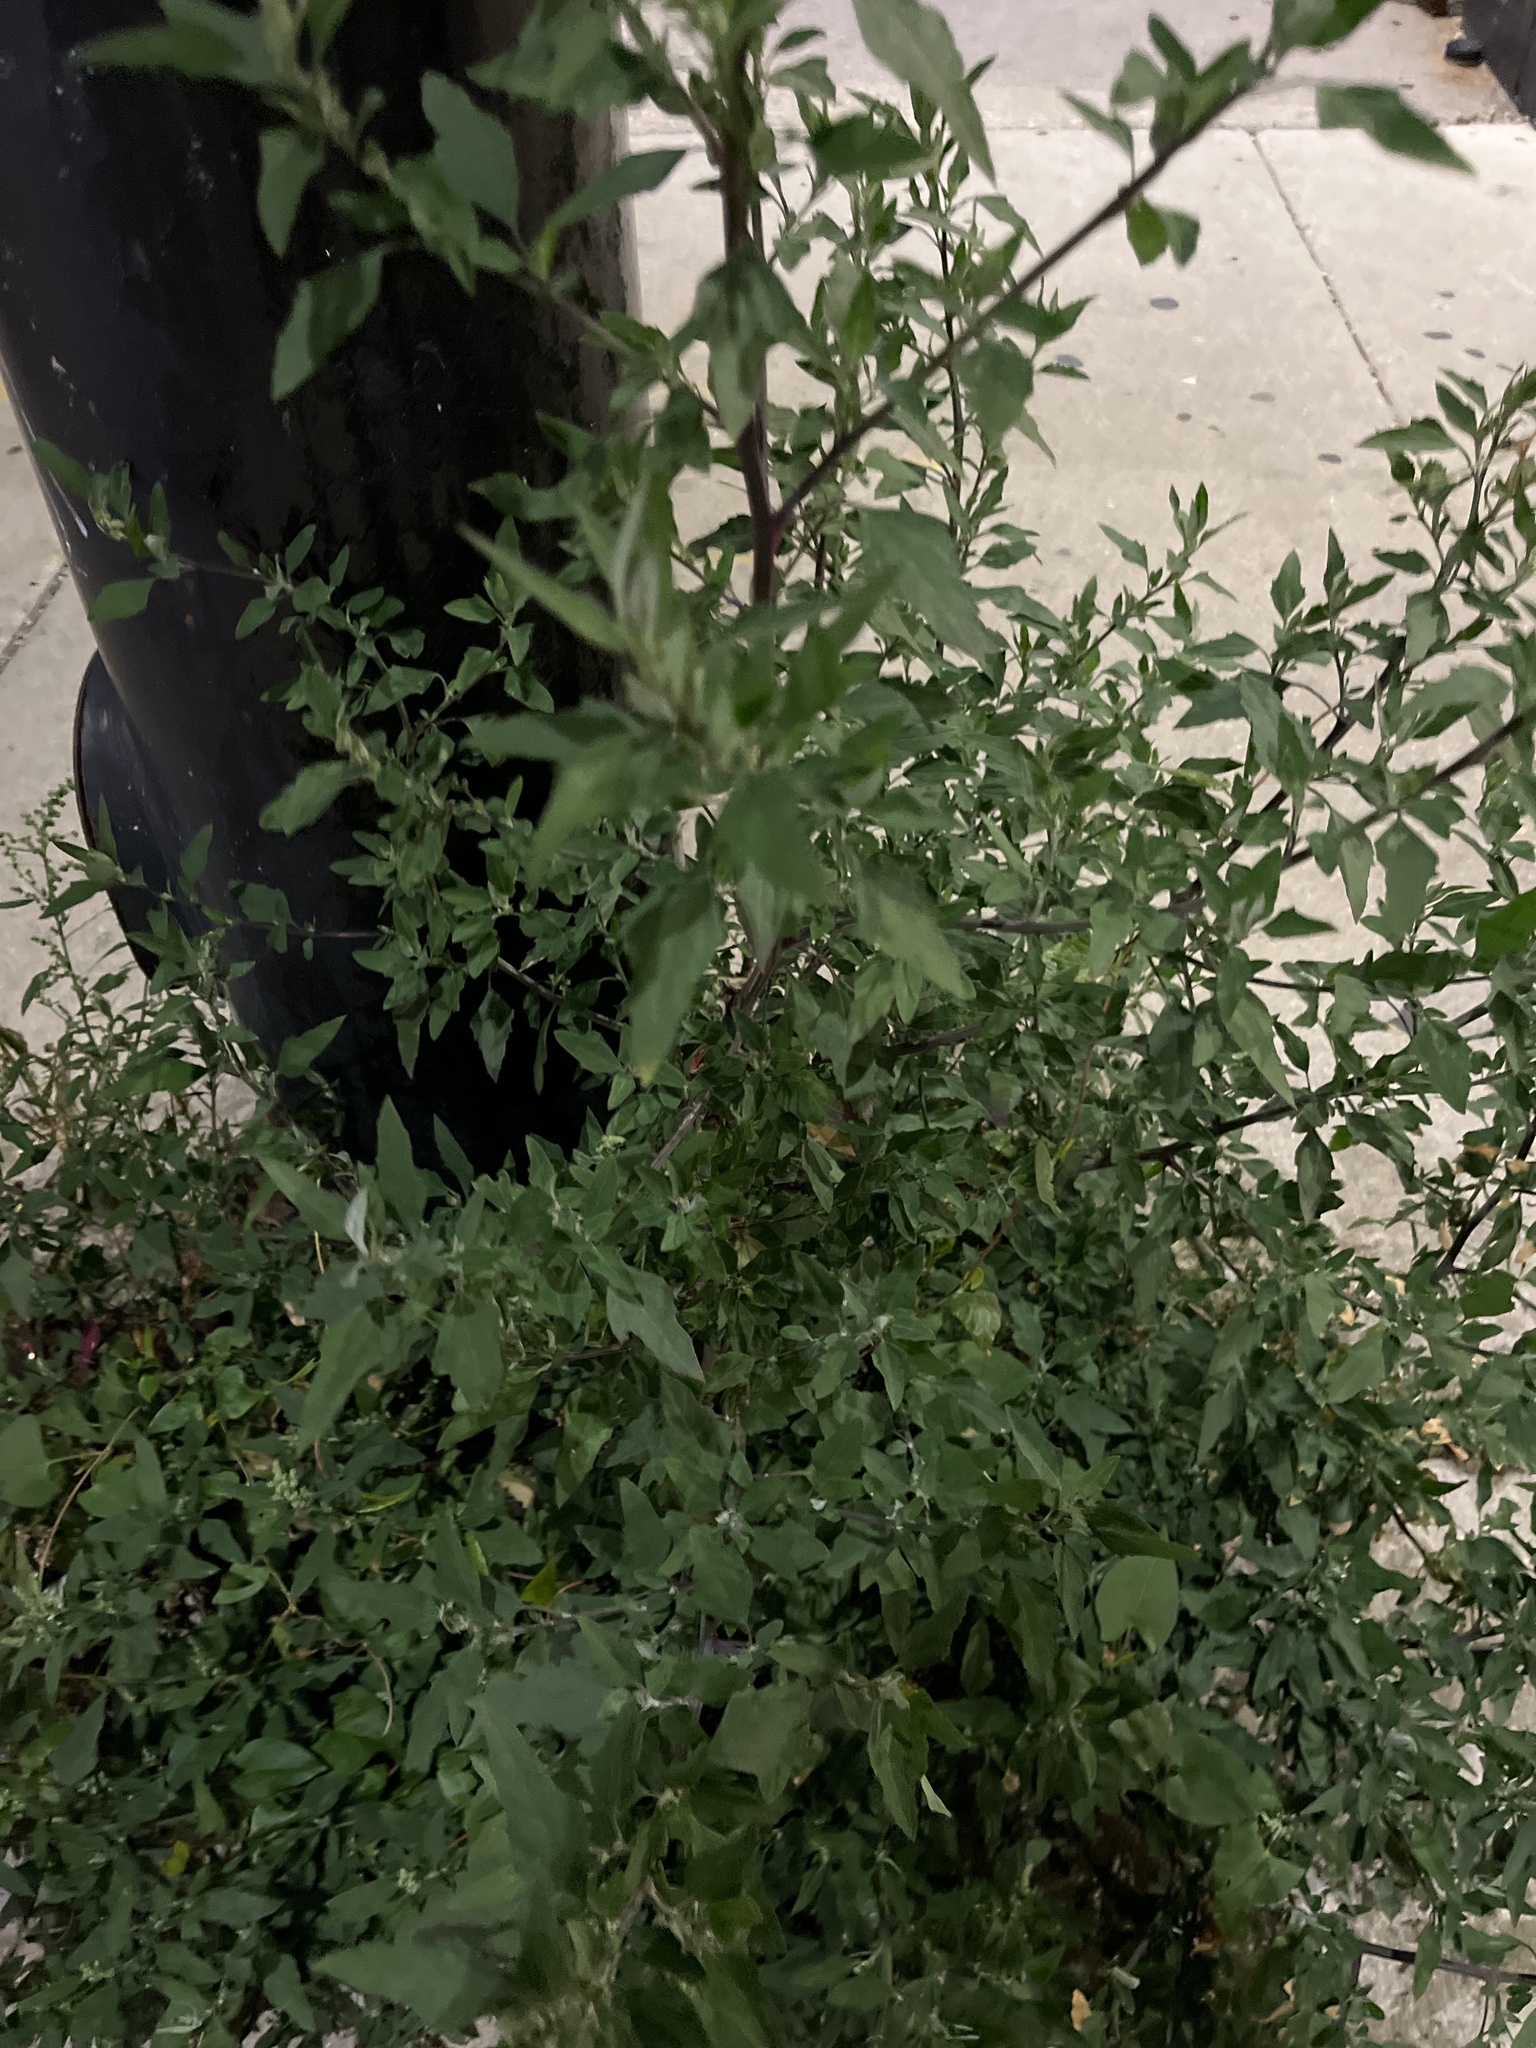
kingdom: Plantae
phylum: Tracheophyta
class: Magnoliopsida
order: Caryophyllales
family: Amaranthaceae
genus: Chenopodium
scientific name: Chenopodium album
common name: Fat-hen
